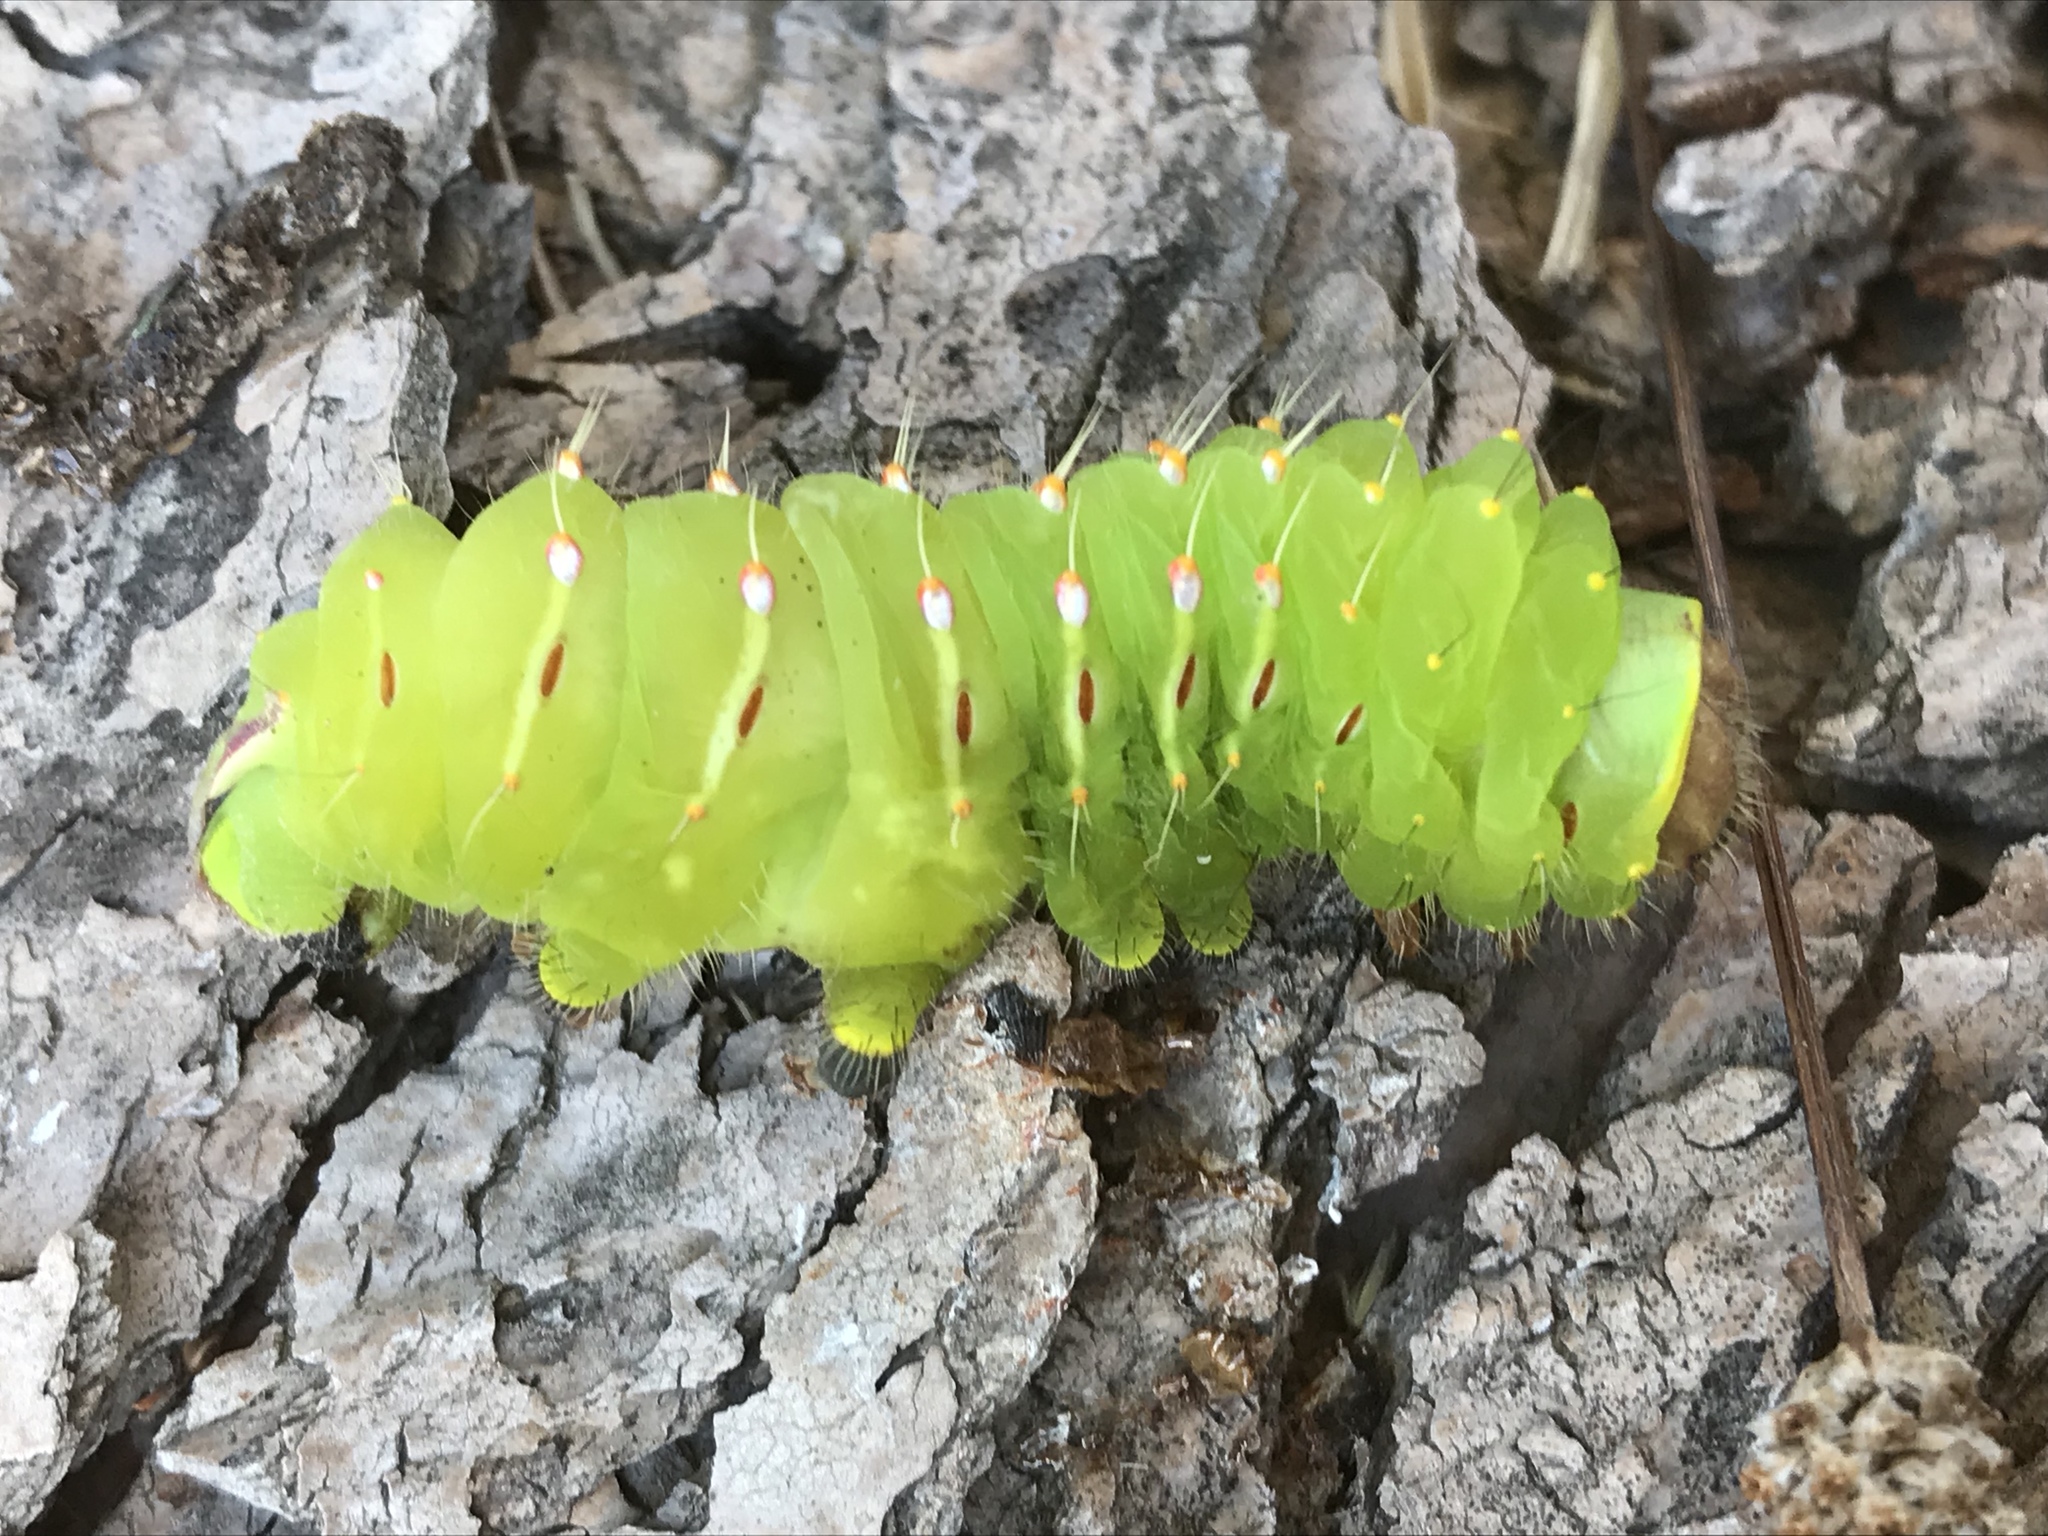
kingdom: Animalia
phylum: Arthropoda
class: Insecta
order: Lepidoptera
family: Saturniidae
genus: Antheraea
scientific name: Antheraea polyphemus
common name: Polyphemus moth
